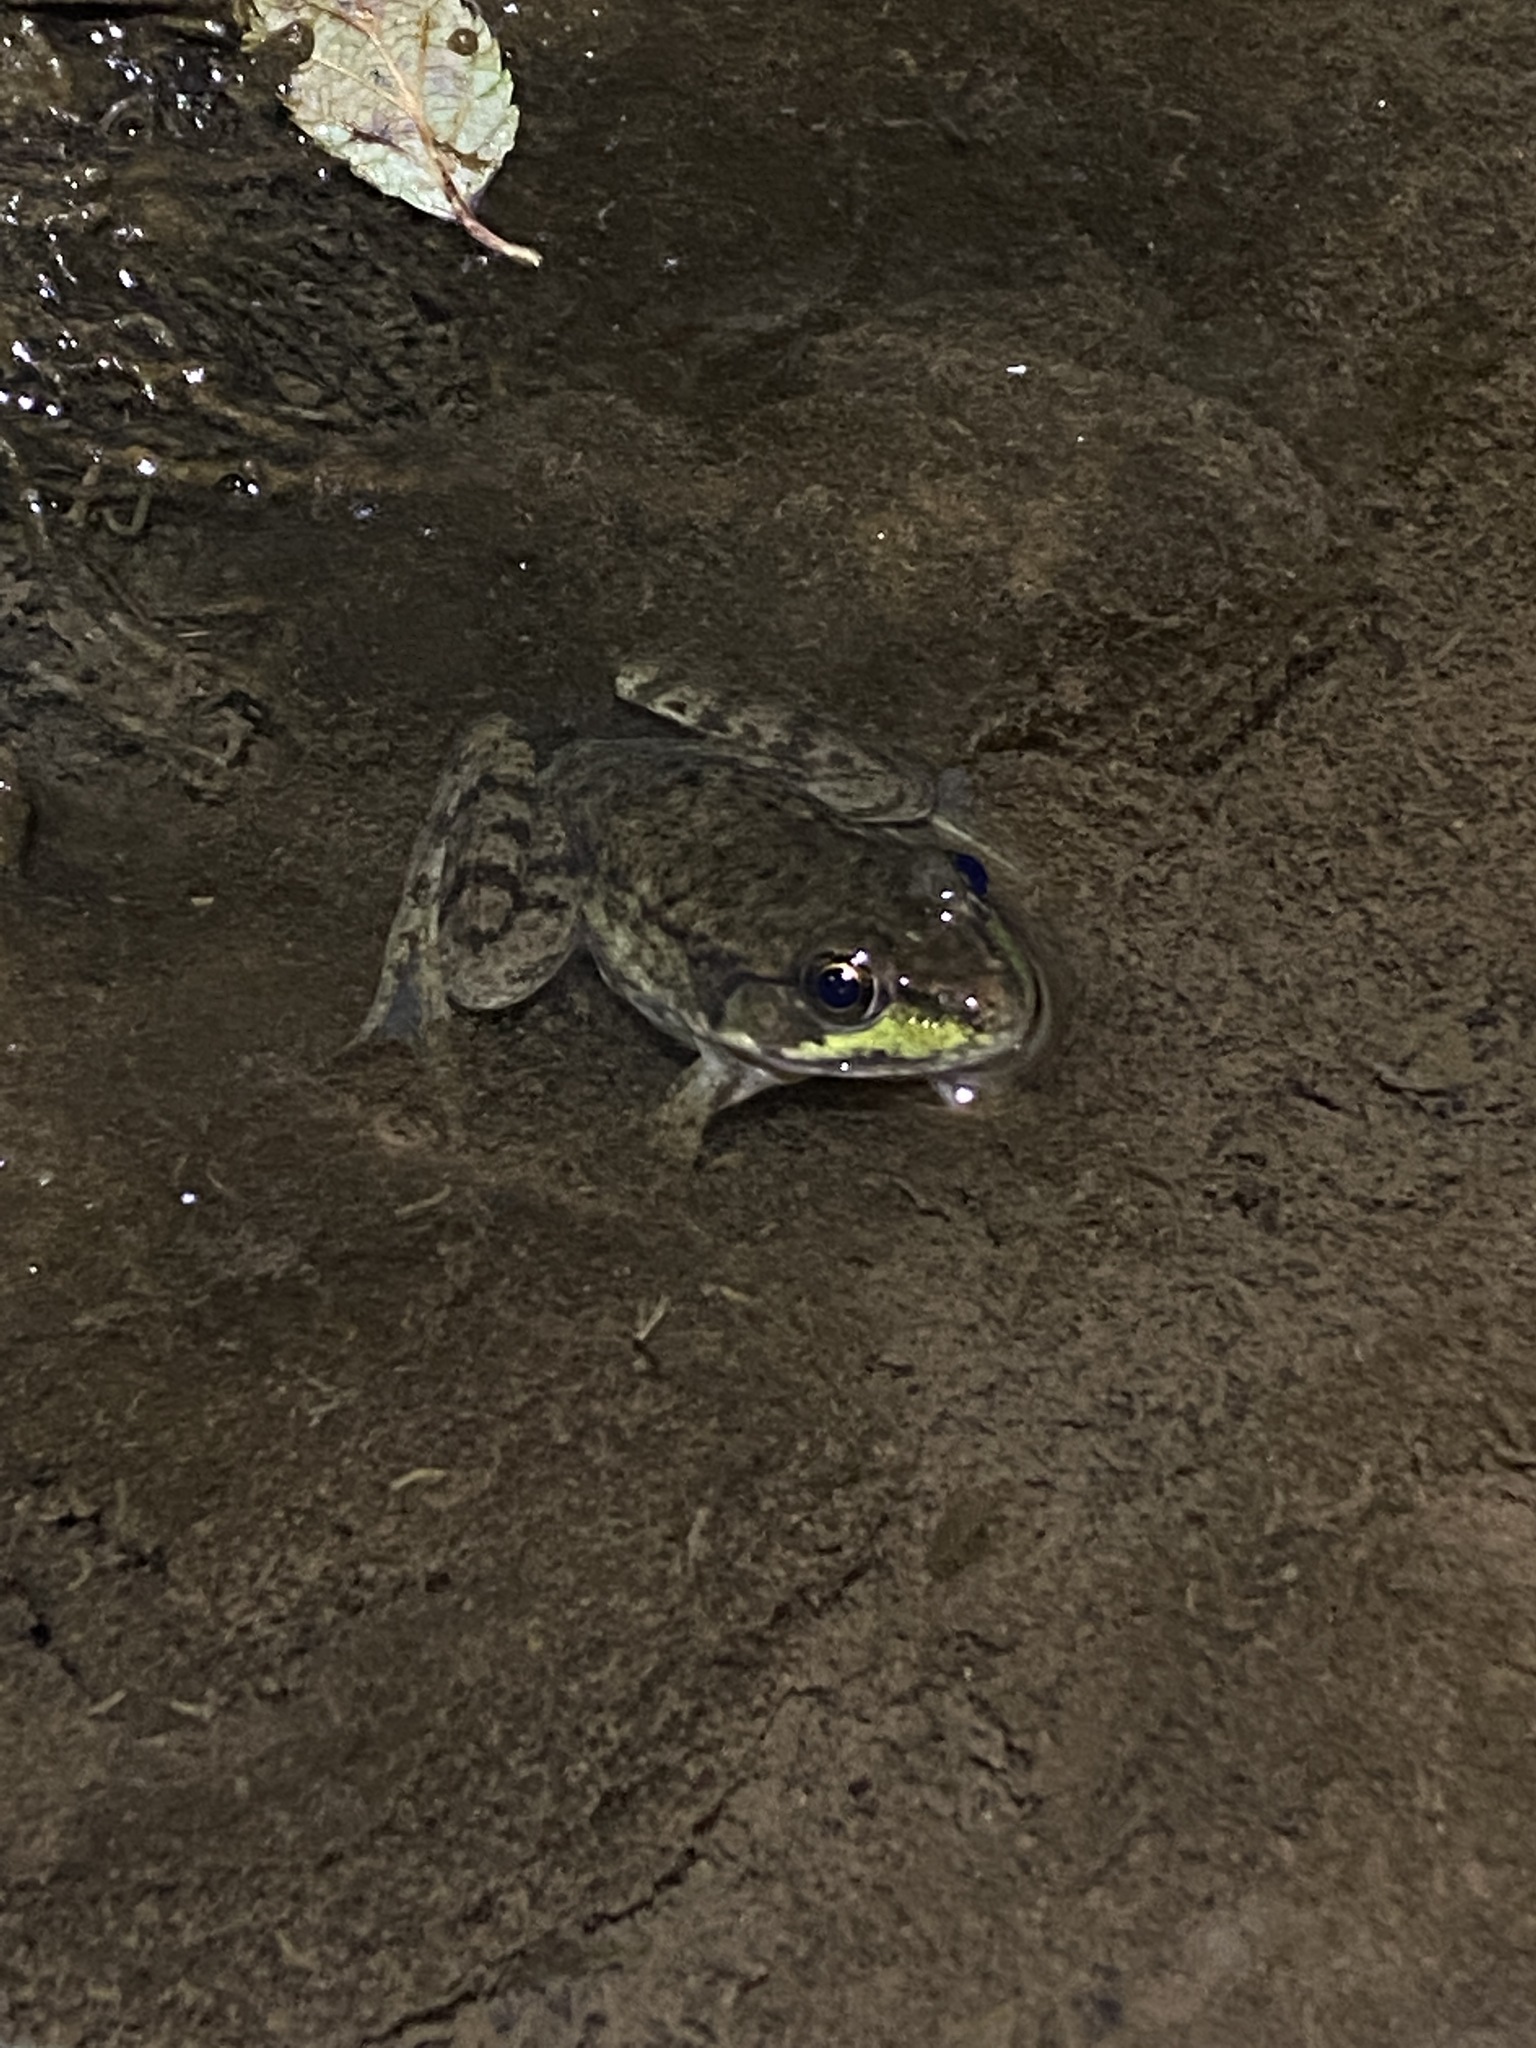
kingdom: Animalia
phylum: Chordata
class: Amphibia
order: Anura
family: Ranidae
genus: Lithobates
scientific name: Lithobates clamitans
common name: Green frog
